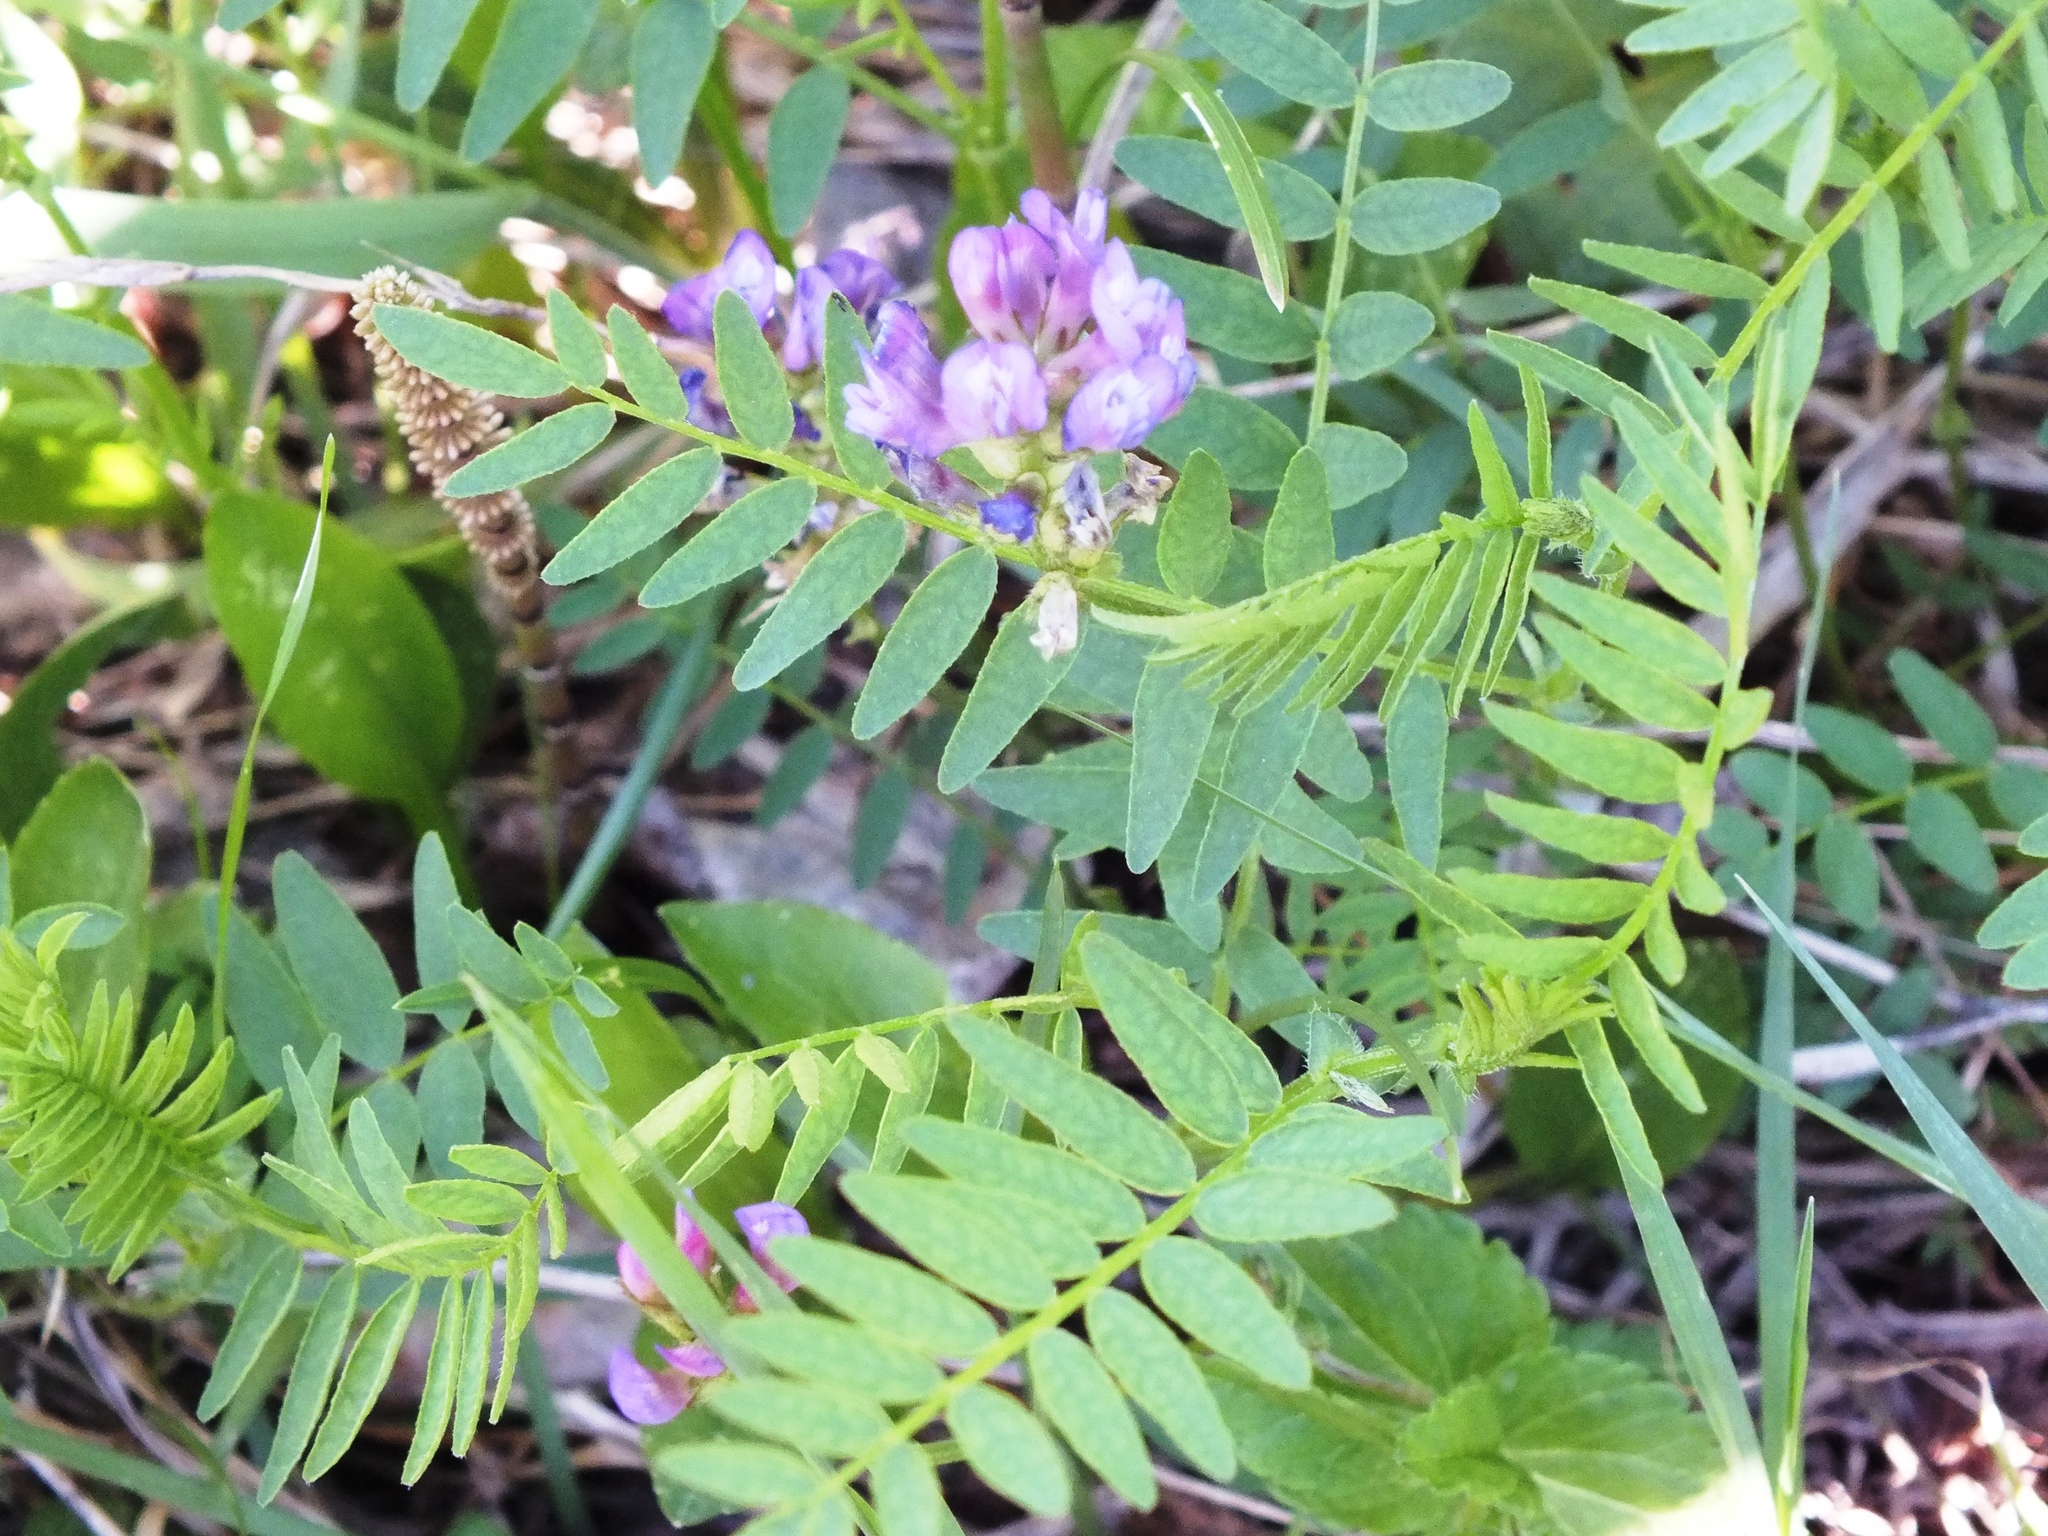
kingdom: Plantae
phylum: Tracheophyta
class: Magnoliopsida
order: Fabales
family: Fabaceae
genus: Vicia
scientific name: Vicia cracca
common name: Bird vetch
